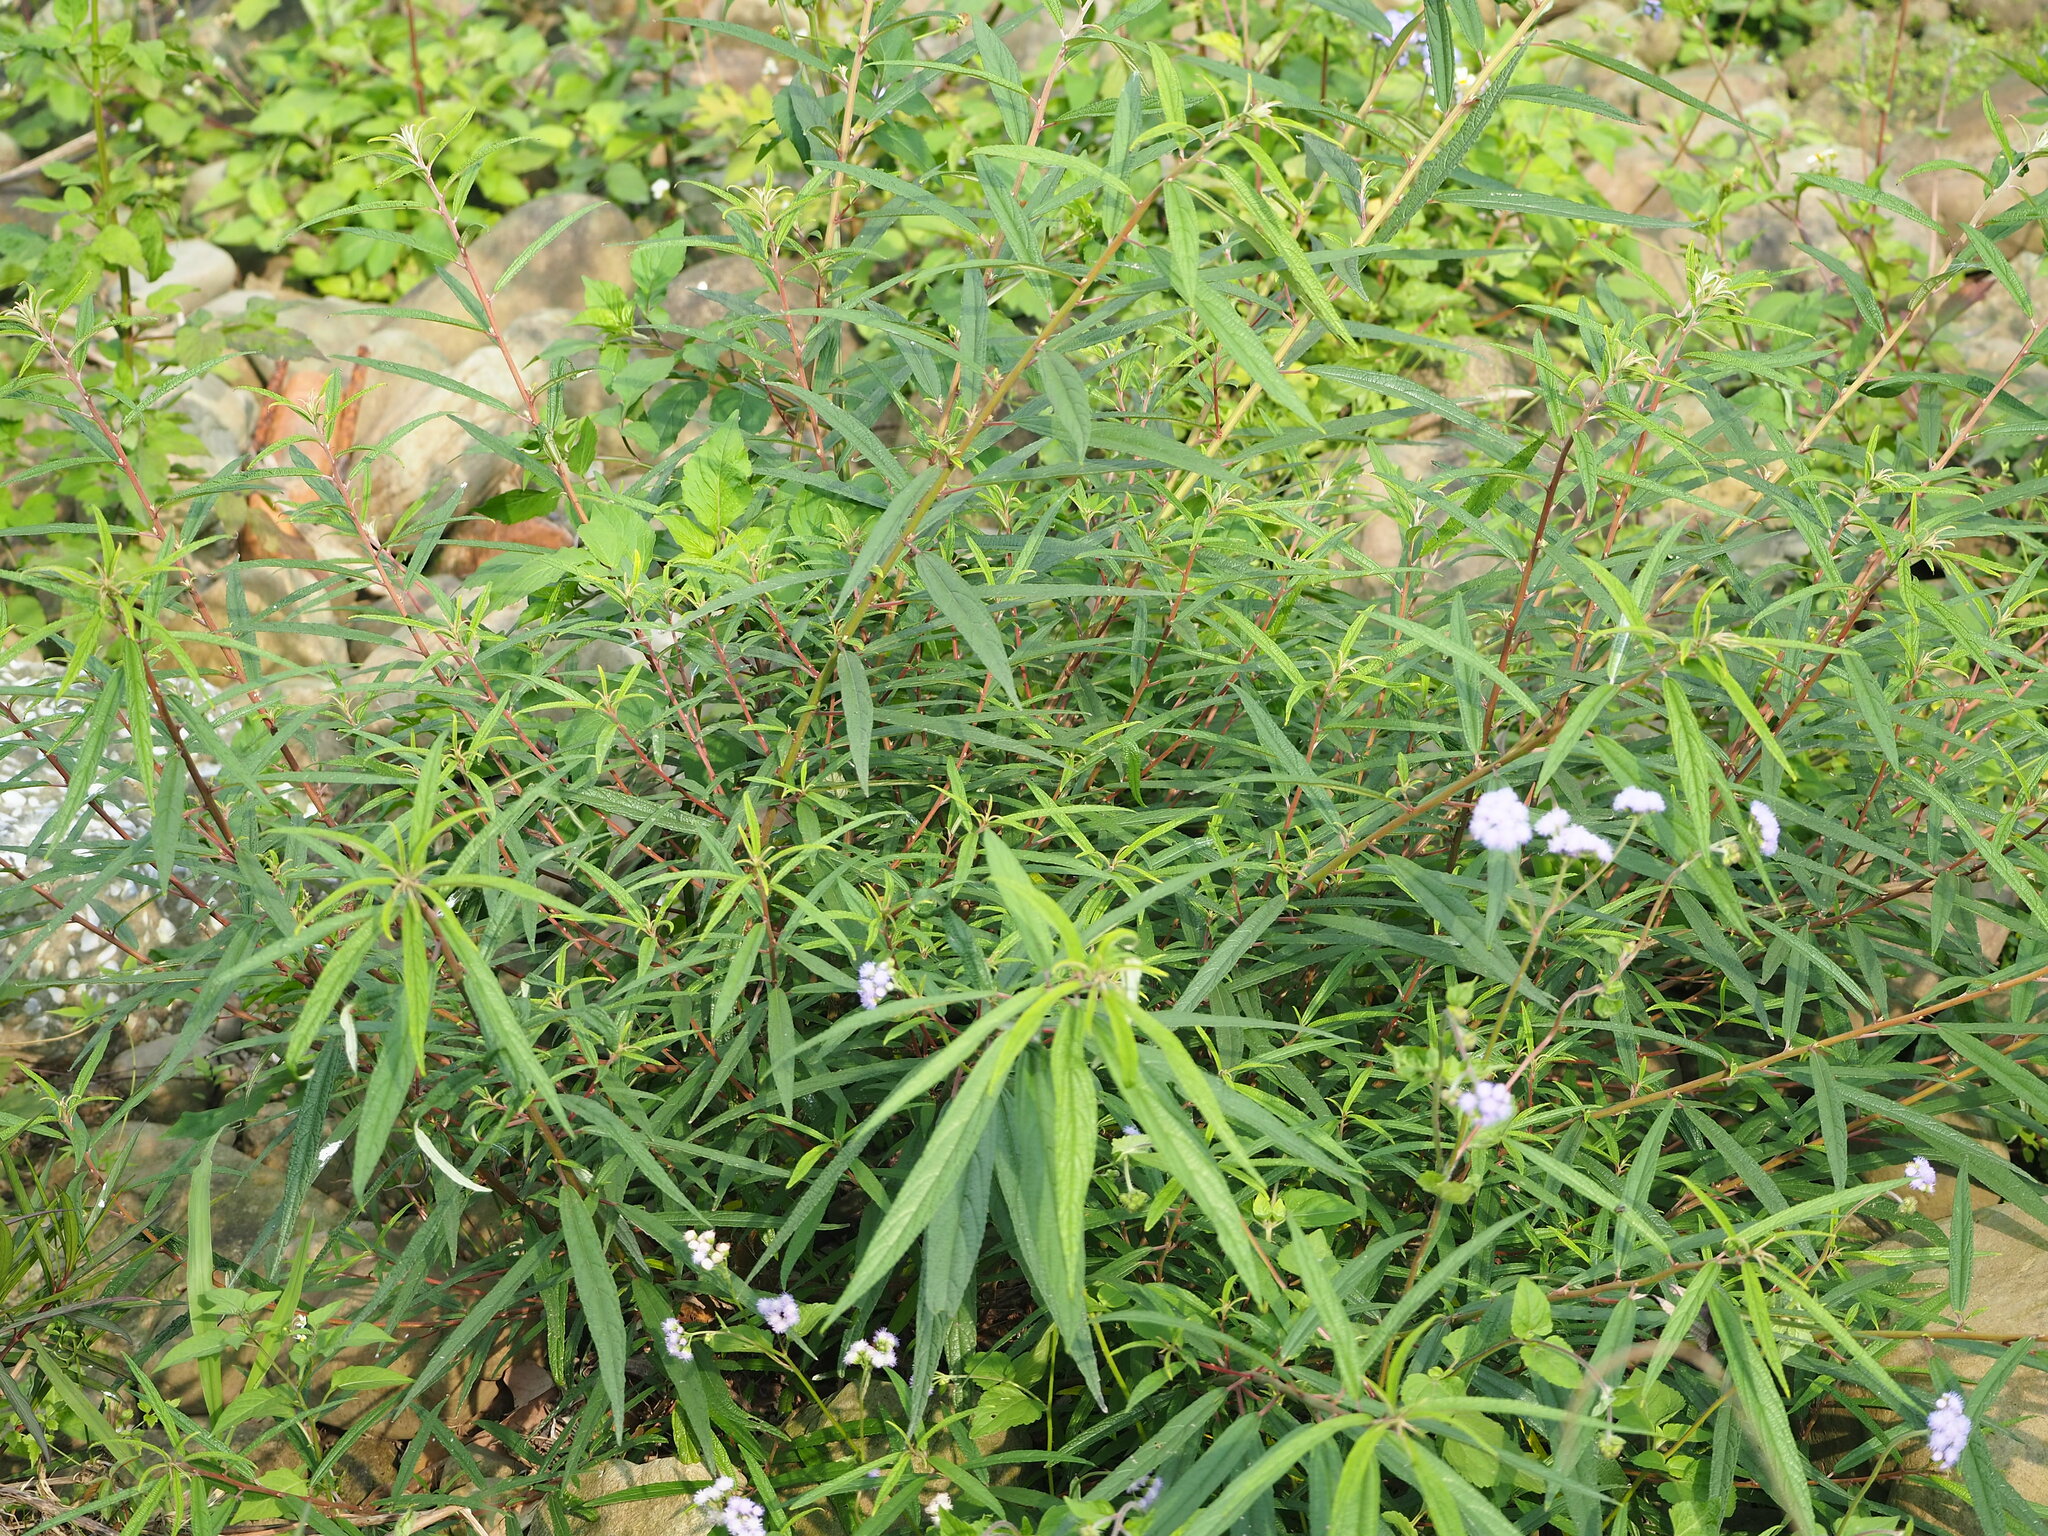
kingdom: Plantae
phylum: Tracheophyta
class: Magnoliopsida
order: Rosales
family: Urticaceae
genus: Debregeasia
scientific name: Debregeasia orientalis
